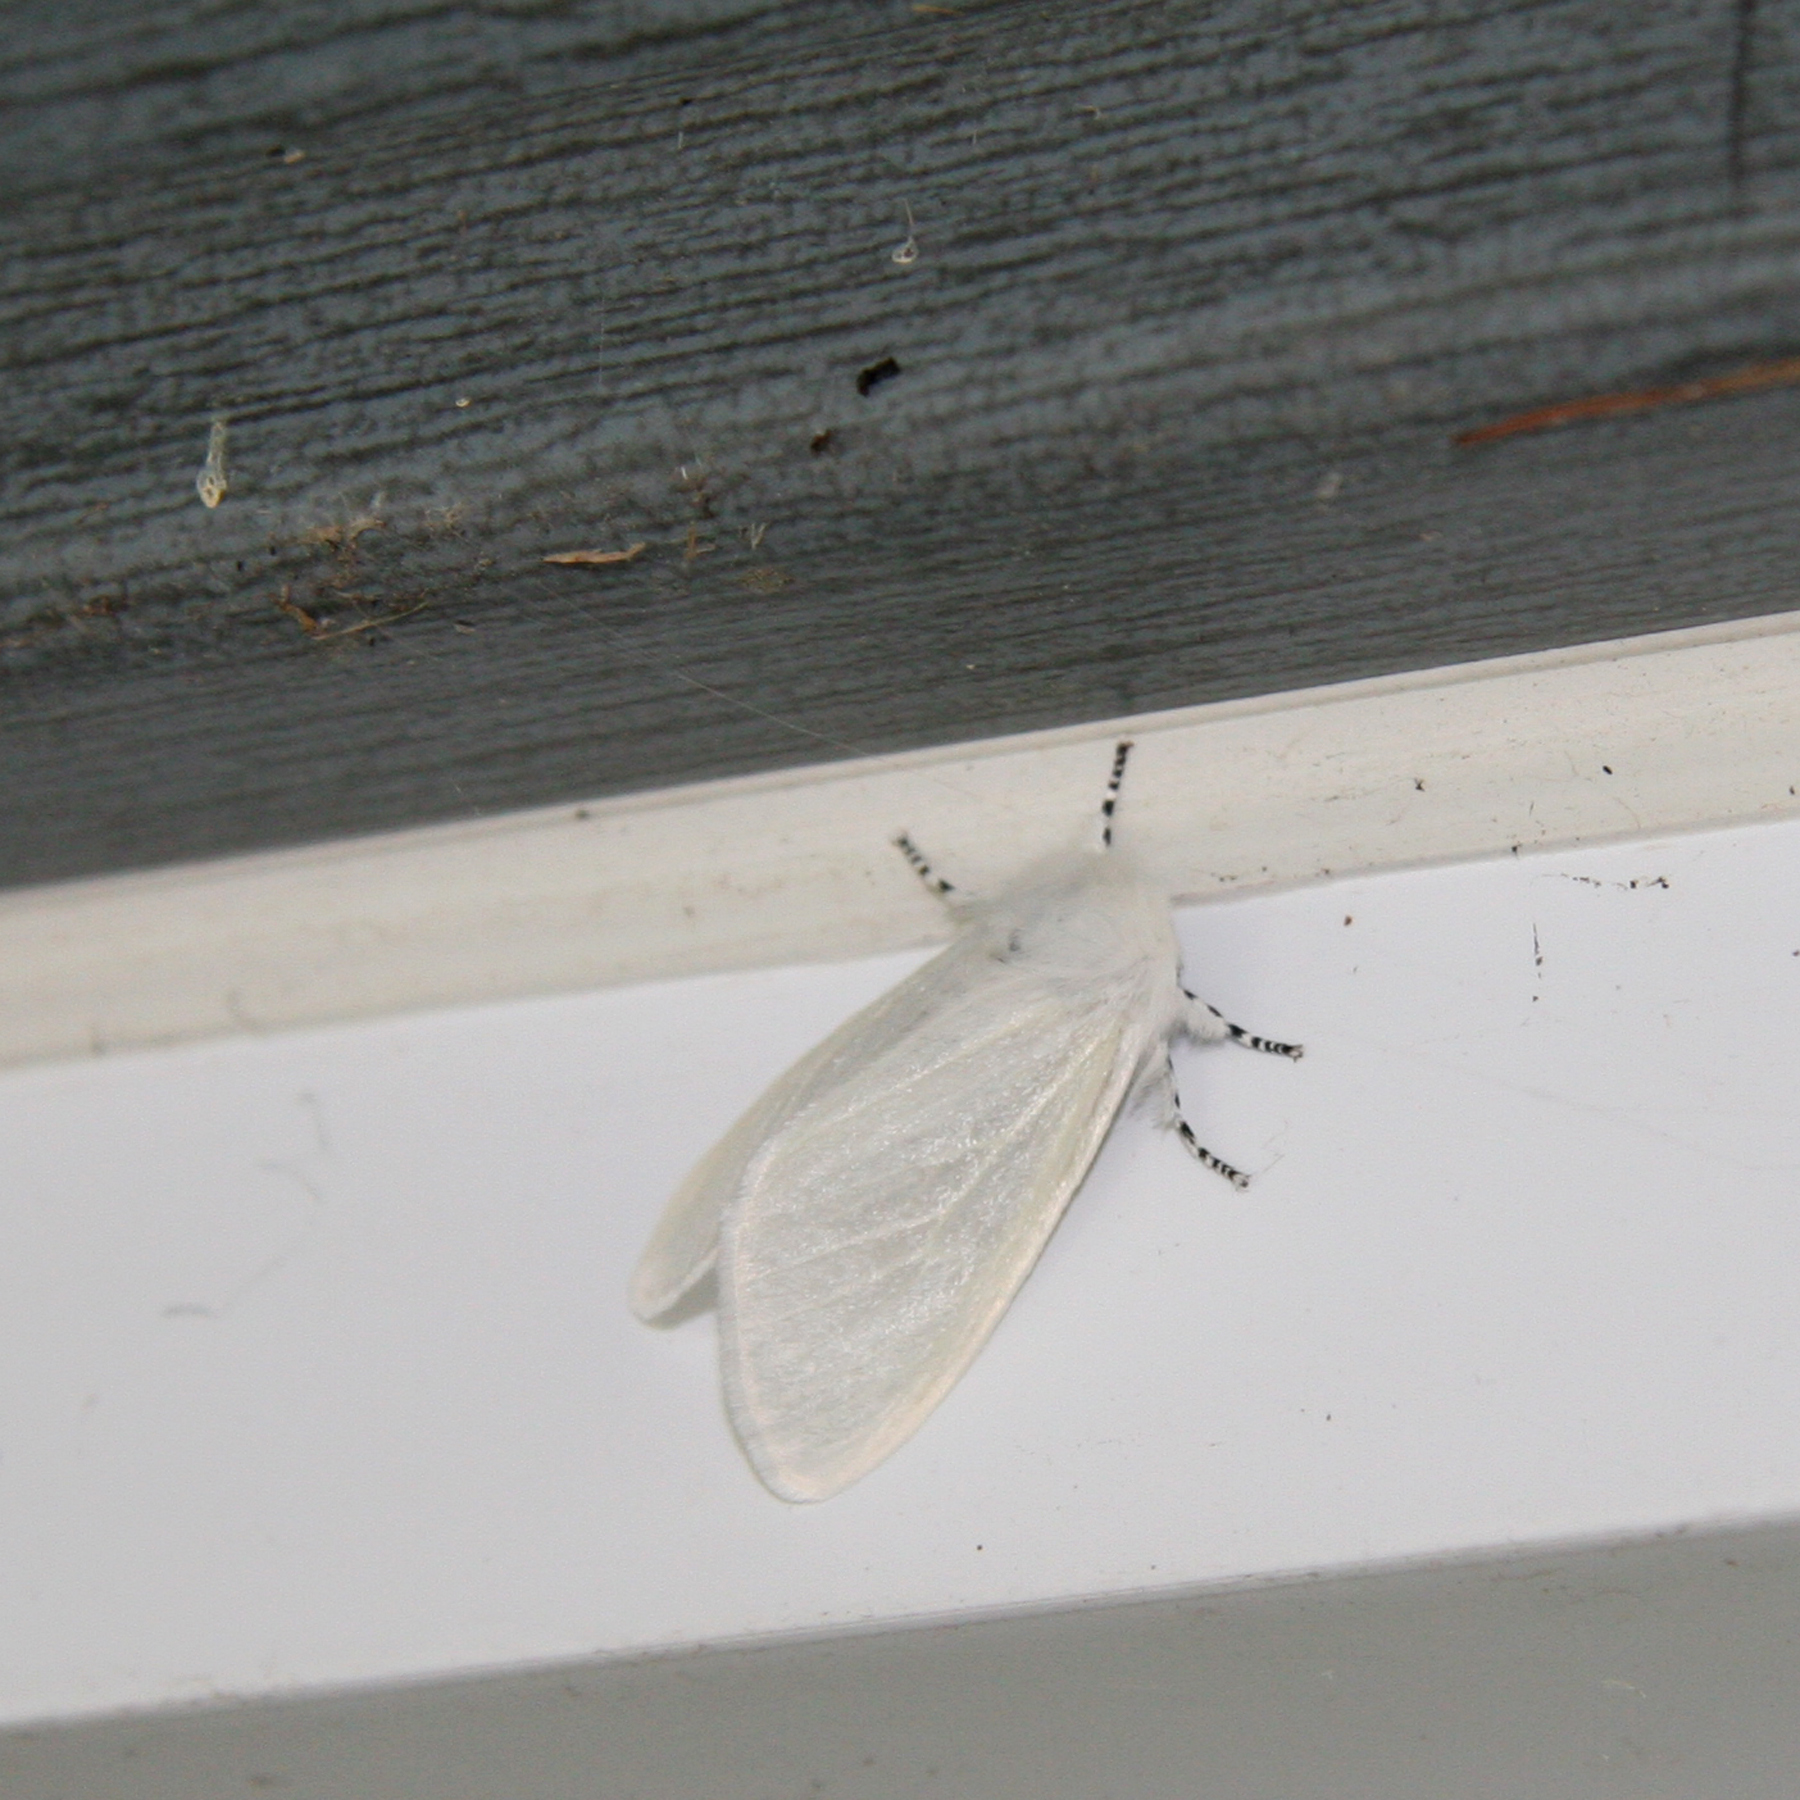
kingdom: Animalia
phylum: Arthropoda
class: Insecta
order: Lepidoptera
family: Erebidae
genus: Leucoma
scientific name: Leucoma salicis
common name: White satin moth
